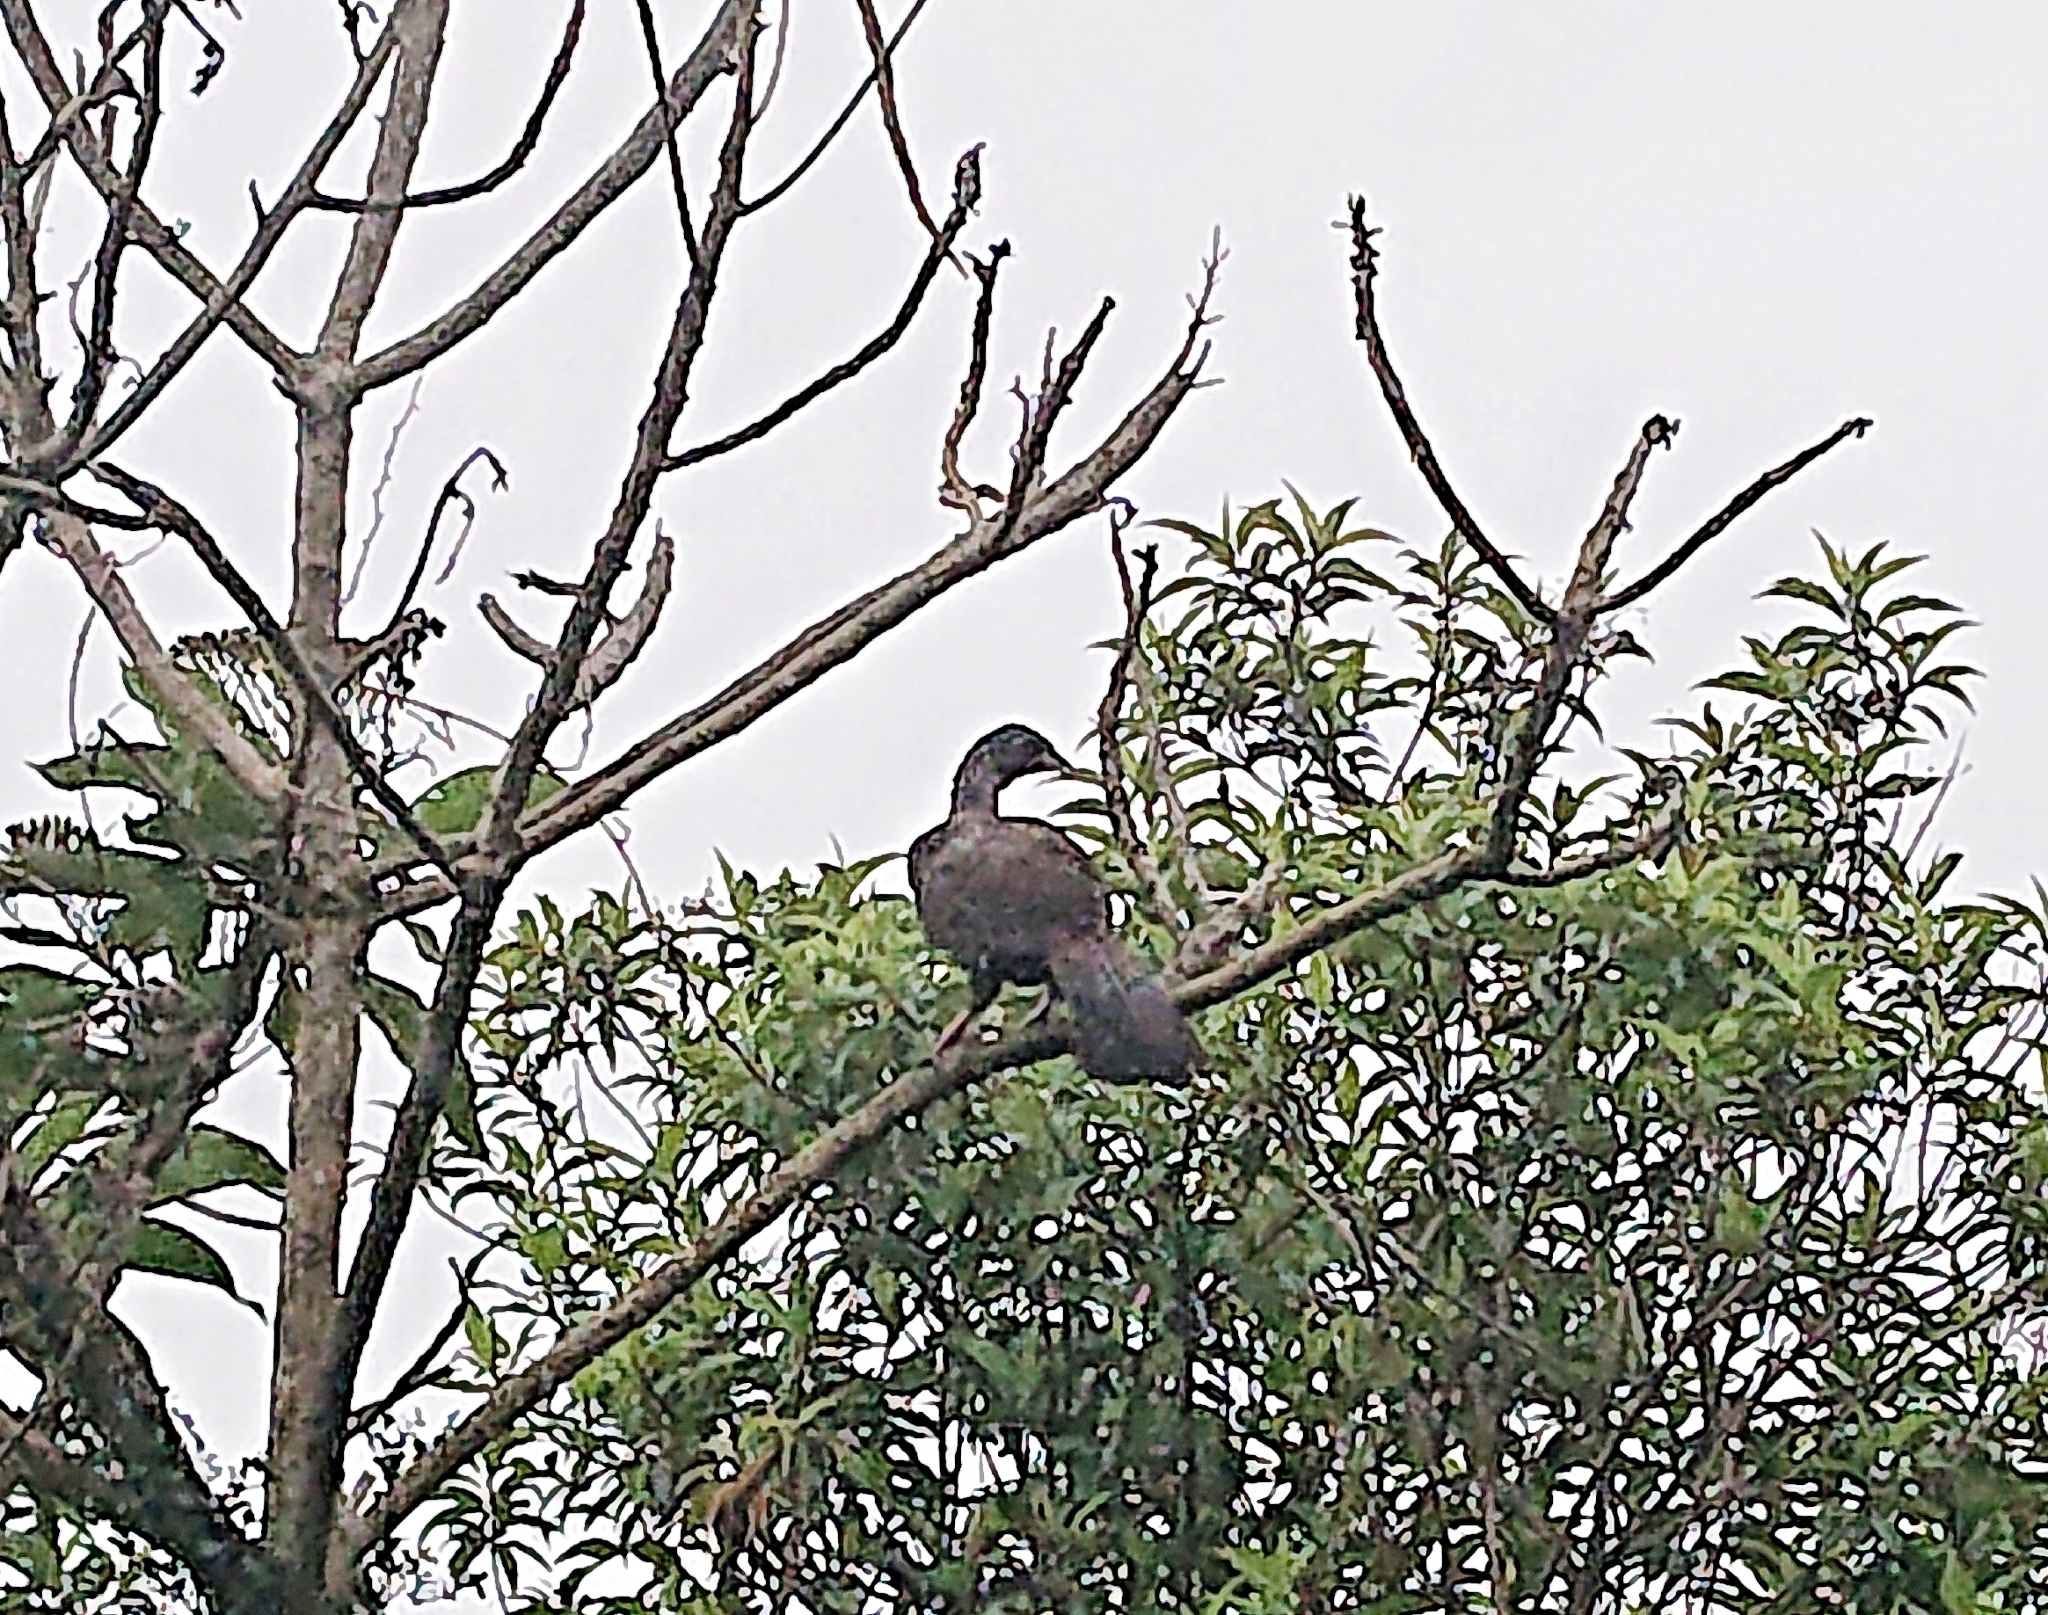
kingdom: Animalia
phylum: Chordata
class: Aves
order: Galliformes
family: Cracidae
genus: Penelope
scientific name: Penelope montagnii
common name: Andean guan
